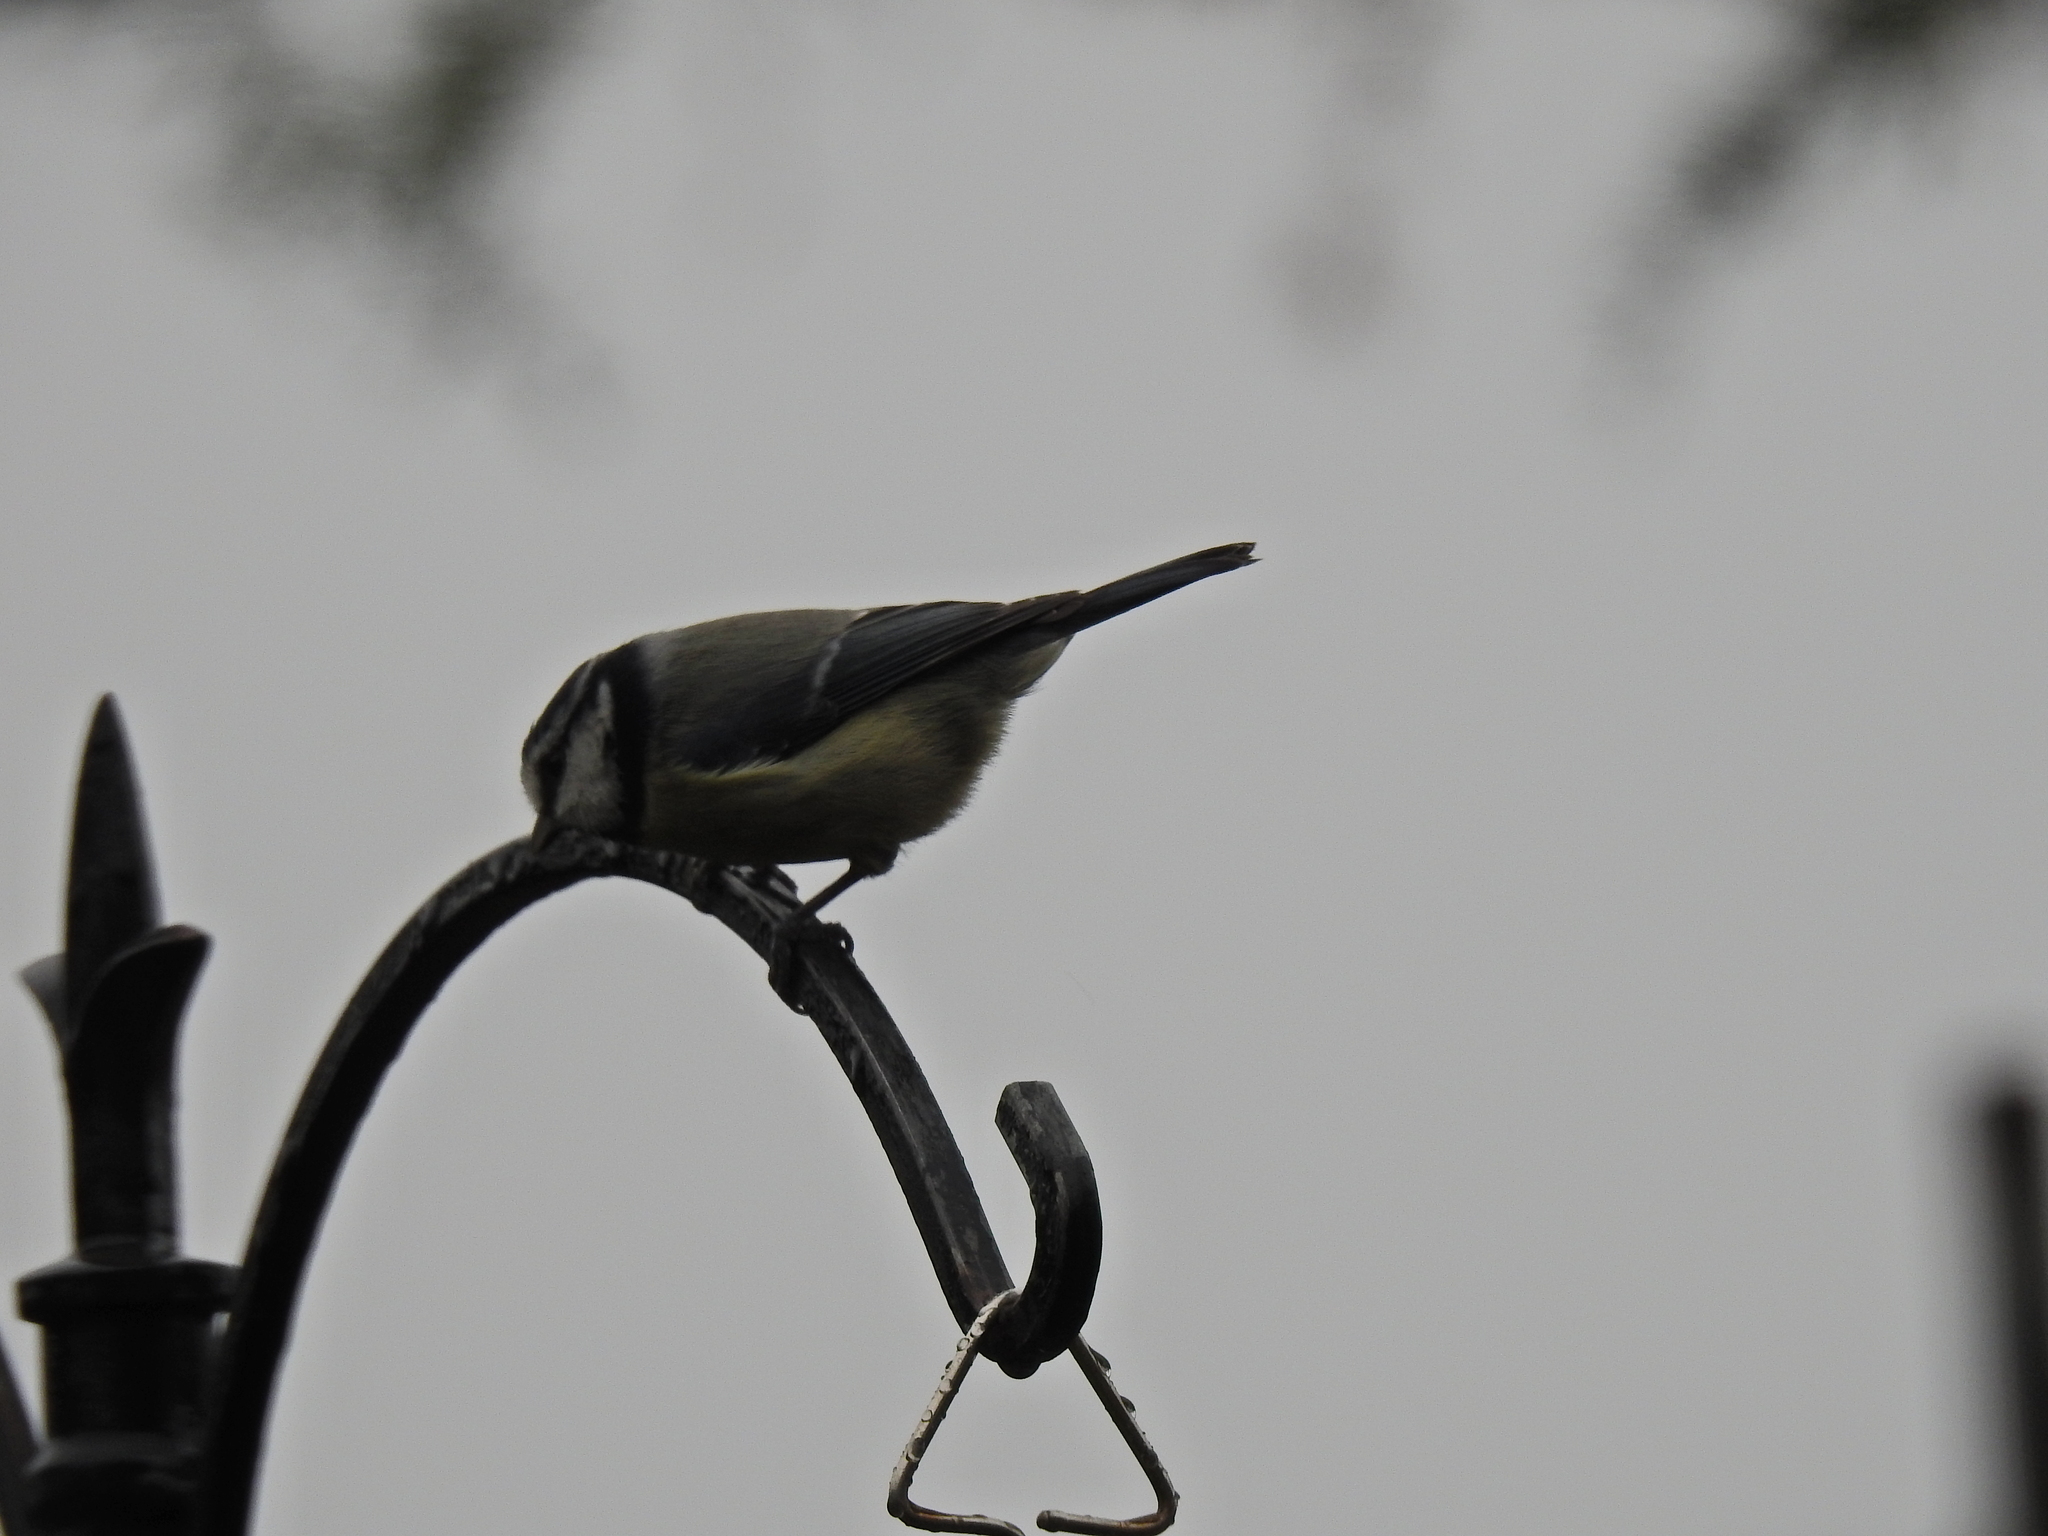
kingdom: Animalia
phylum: Chordata
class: Aves
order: Passeriformes
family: Paridae
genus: Cyanistes
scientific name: Cyanistes caeruleus
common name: Eurasian blue tit
